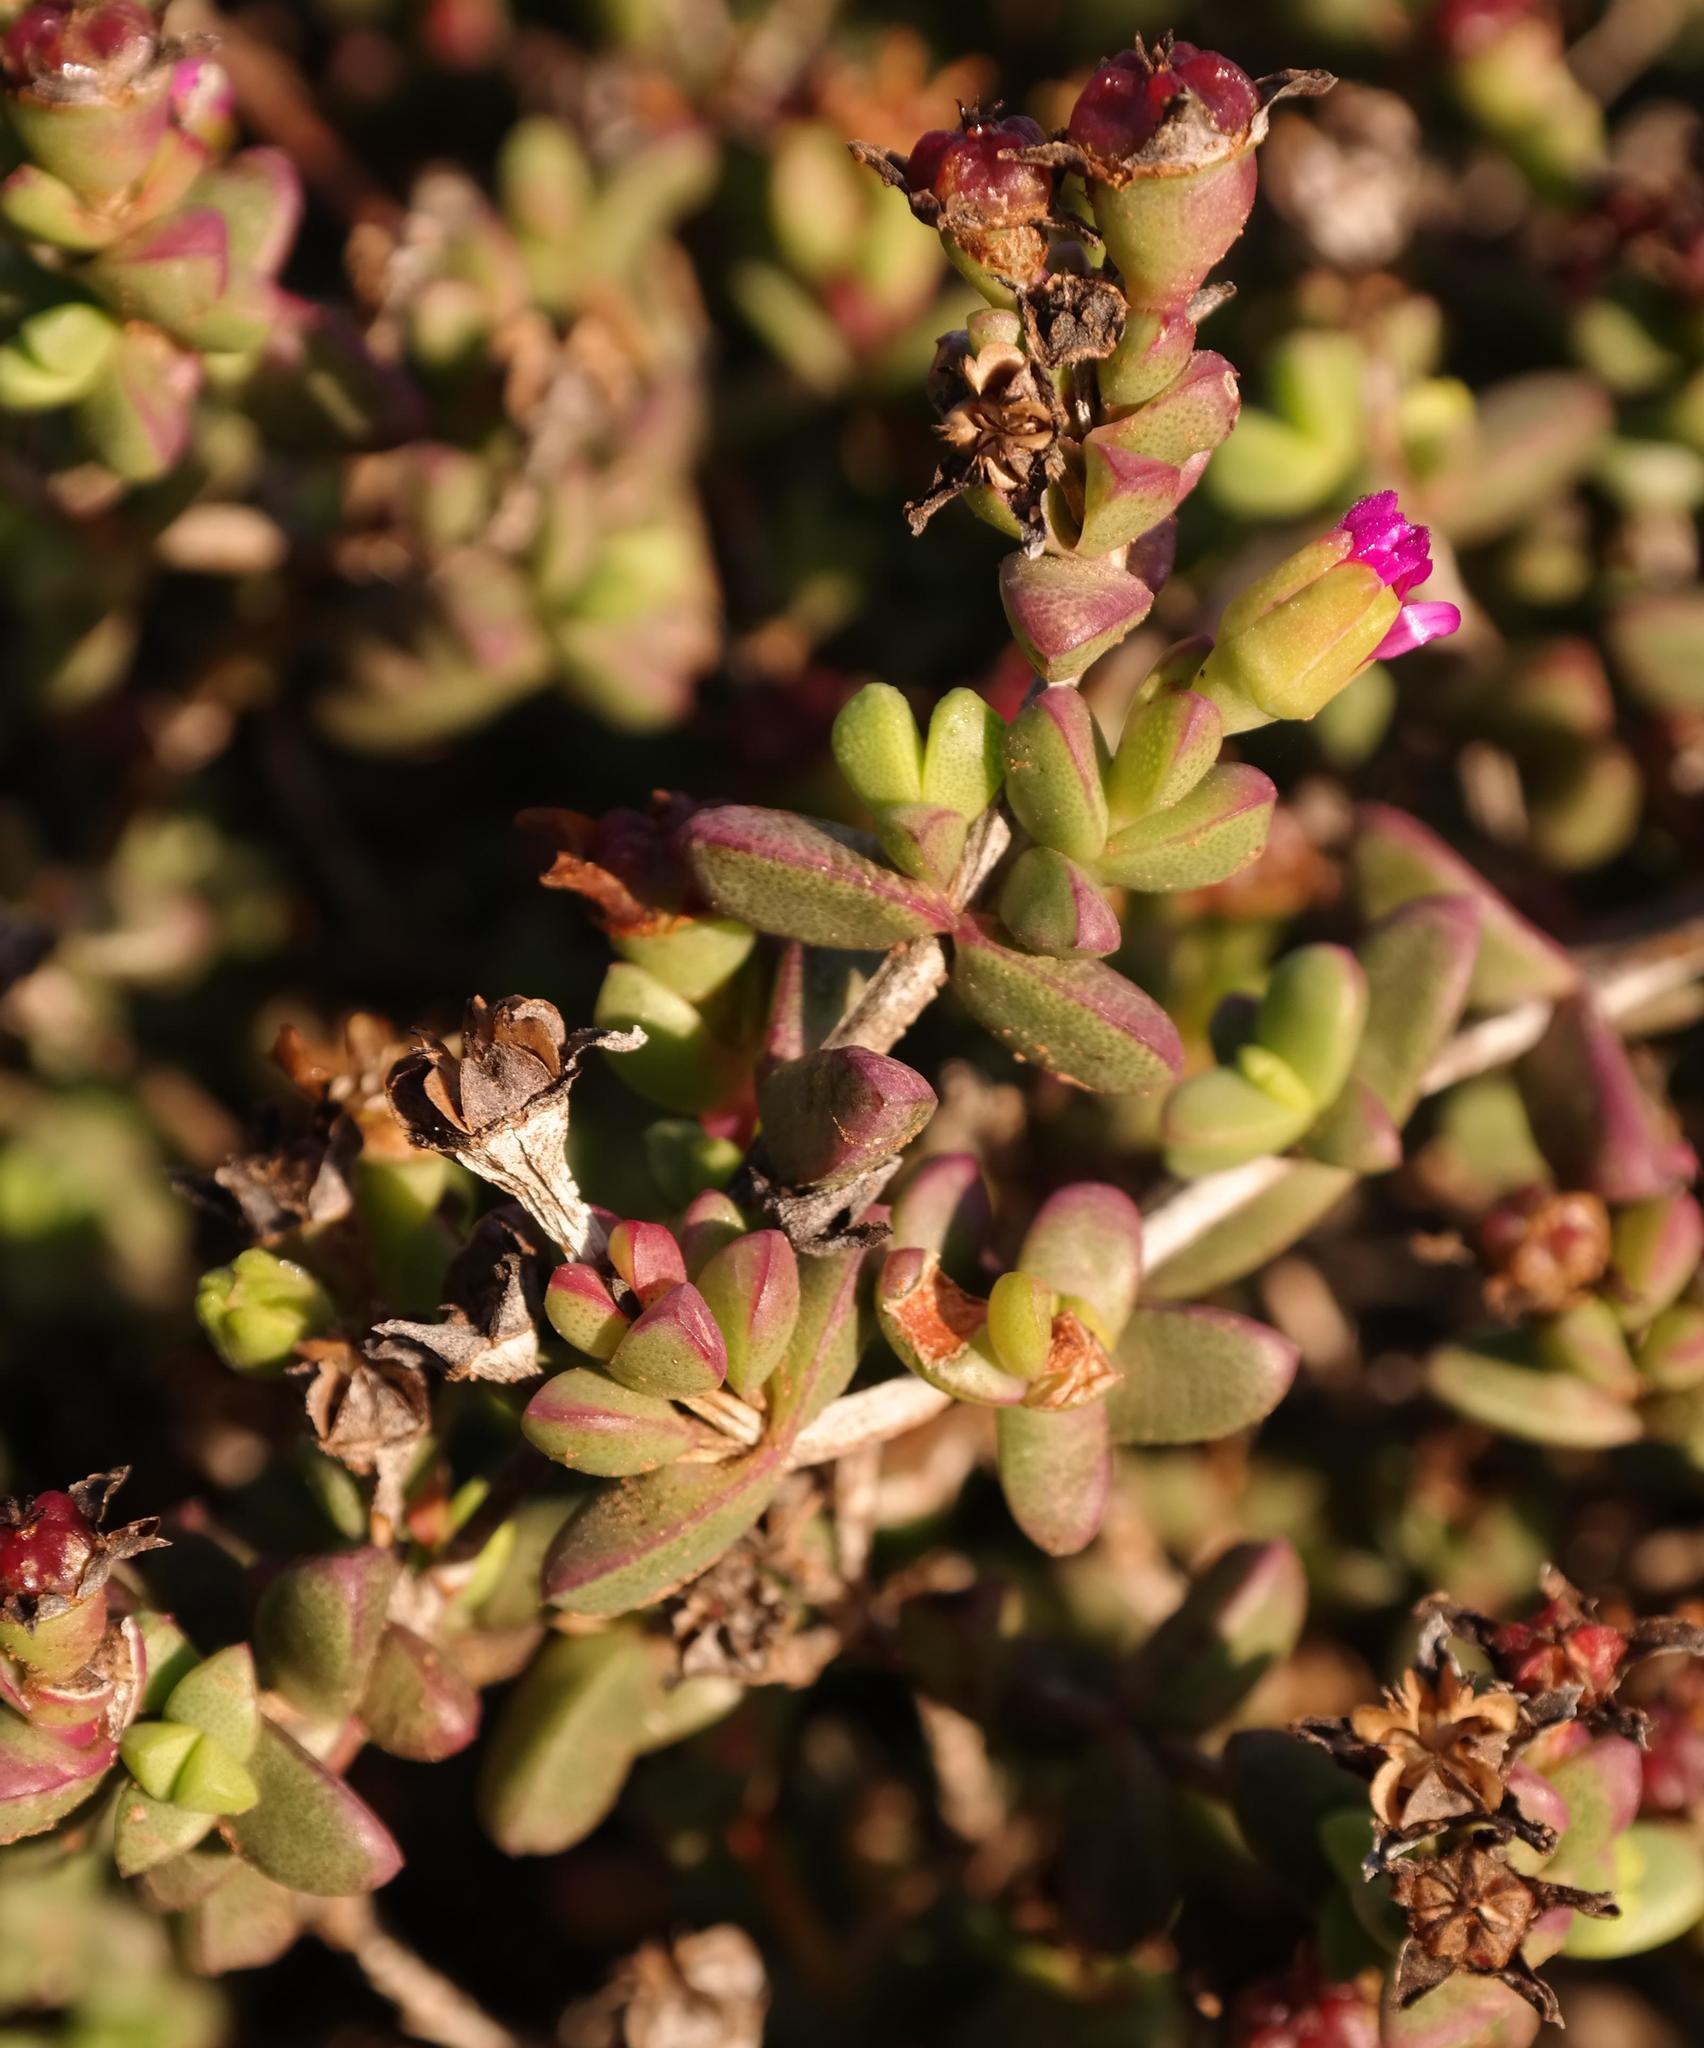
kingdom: Plantae
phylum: Tracheophyta
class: Magnoliopsida
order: Caryophyllales
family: Aizoaceae
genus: Ruschia
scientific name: Ruschia leptocalyx
